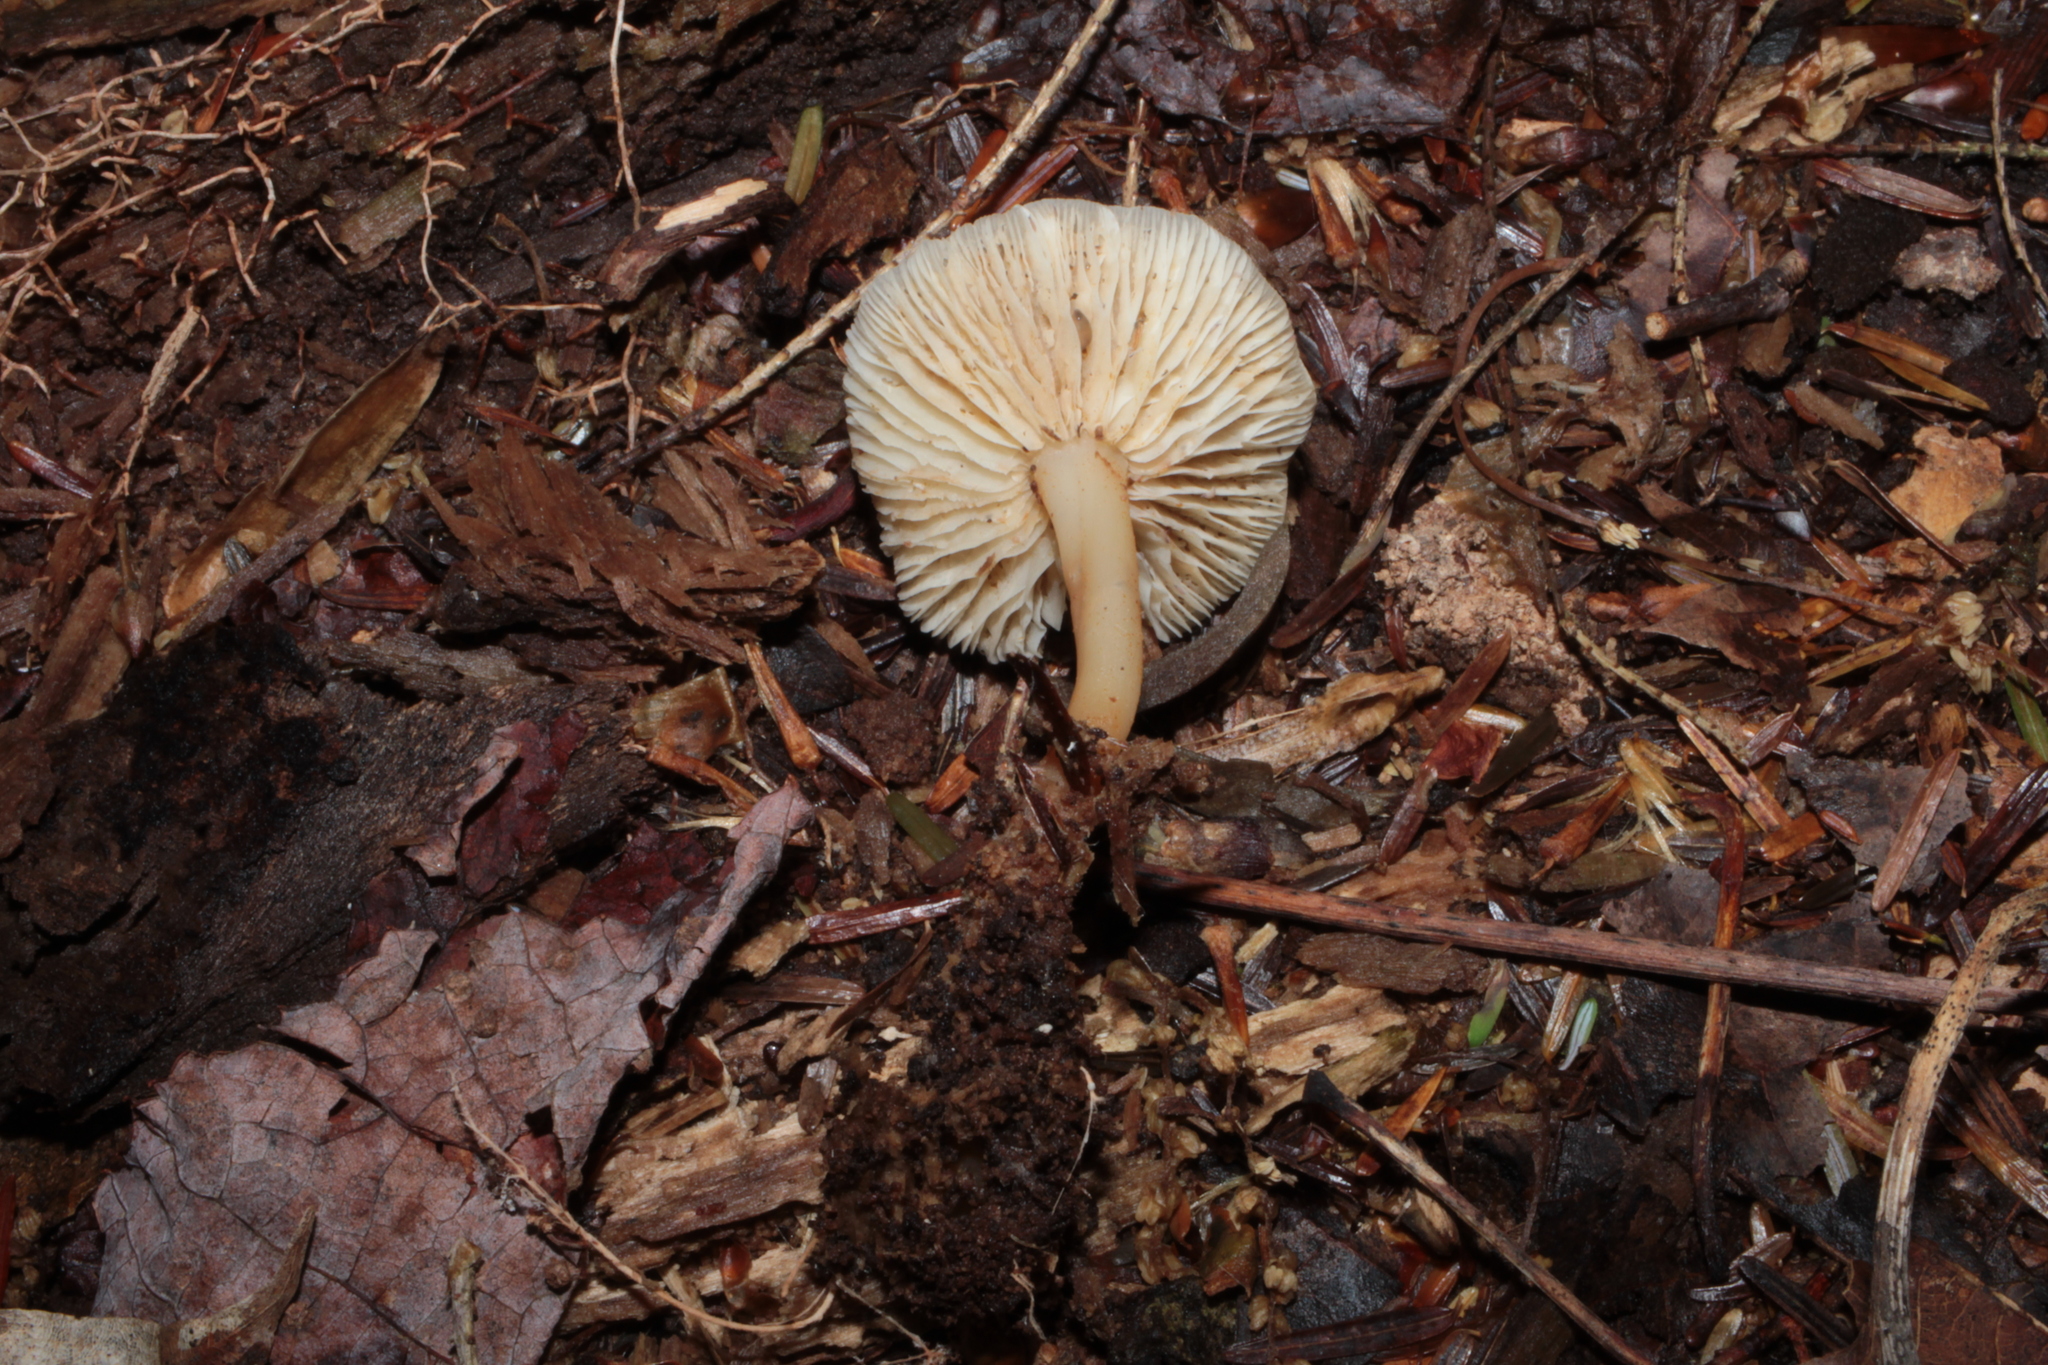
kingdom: Fungi
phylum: Basidiomycota
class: Agaricomycetes
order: Agaricales
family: Omphalotaceae
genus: Gymnopus
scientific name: Gymnopus aquosus
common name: Watery toughshank
